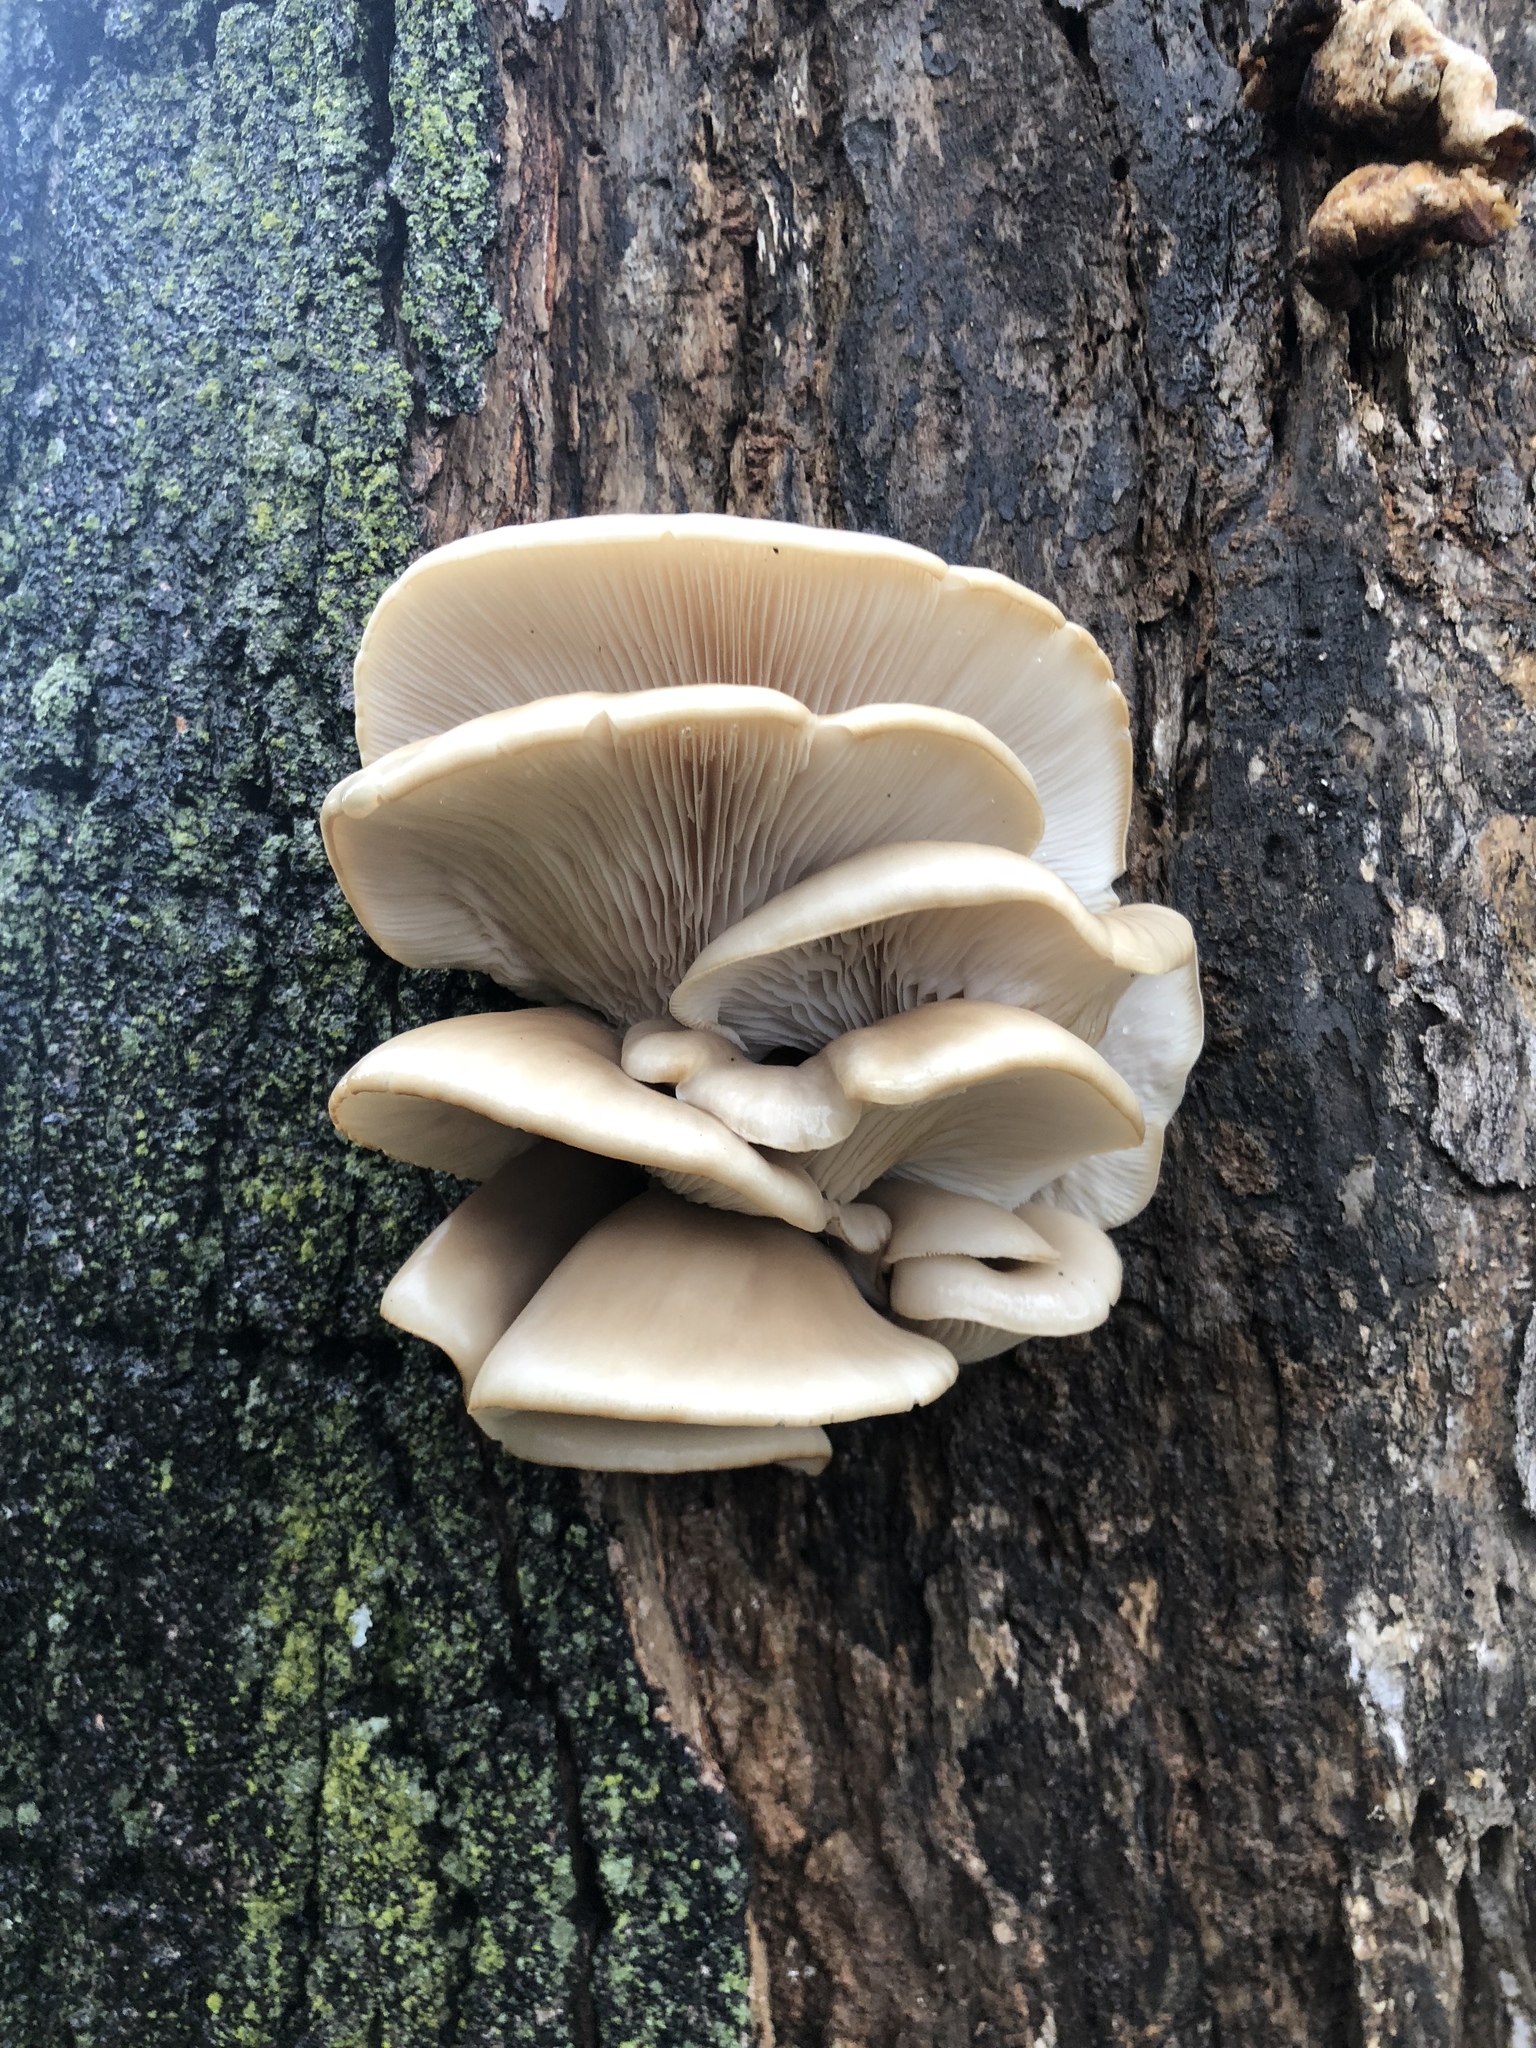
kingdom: Fungi
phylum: Basidiomycota
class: Agaricomycetes
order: Agaricales
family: Pleurotaceae
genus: Pleurotus
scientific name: Pleurotus ostreatus
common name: Oyster mushroom
